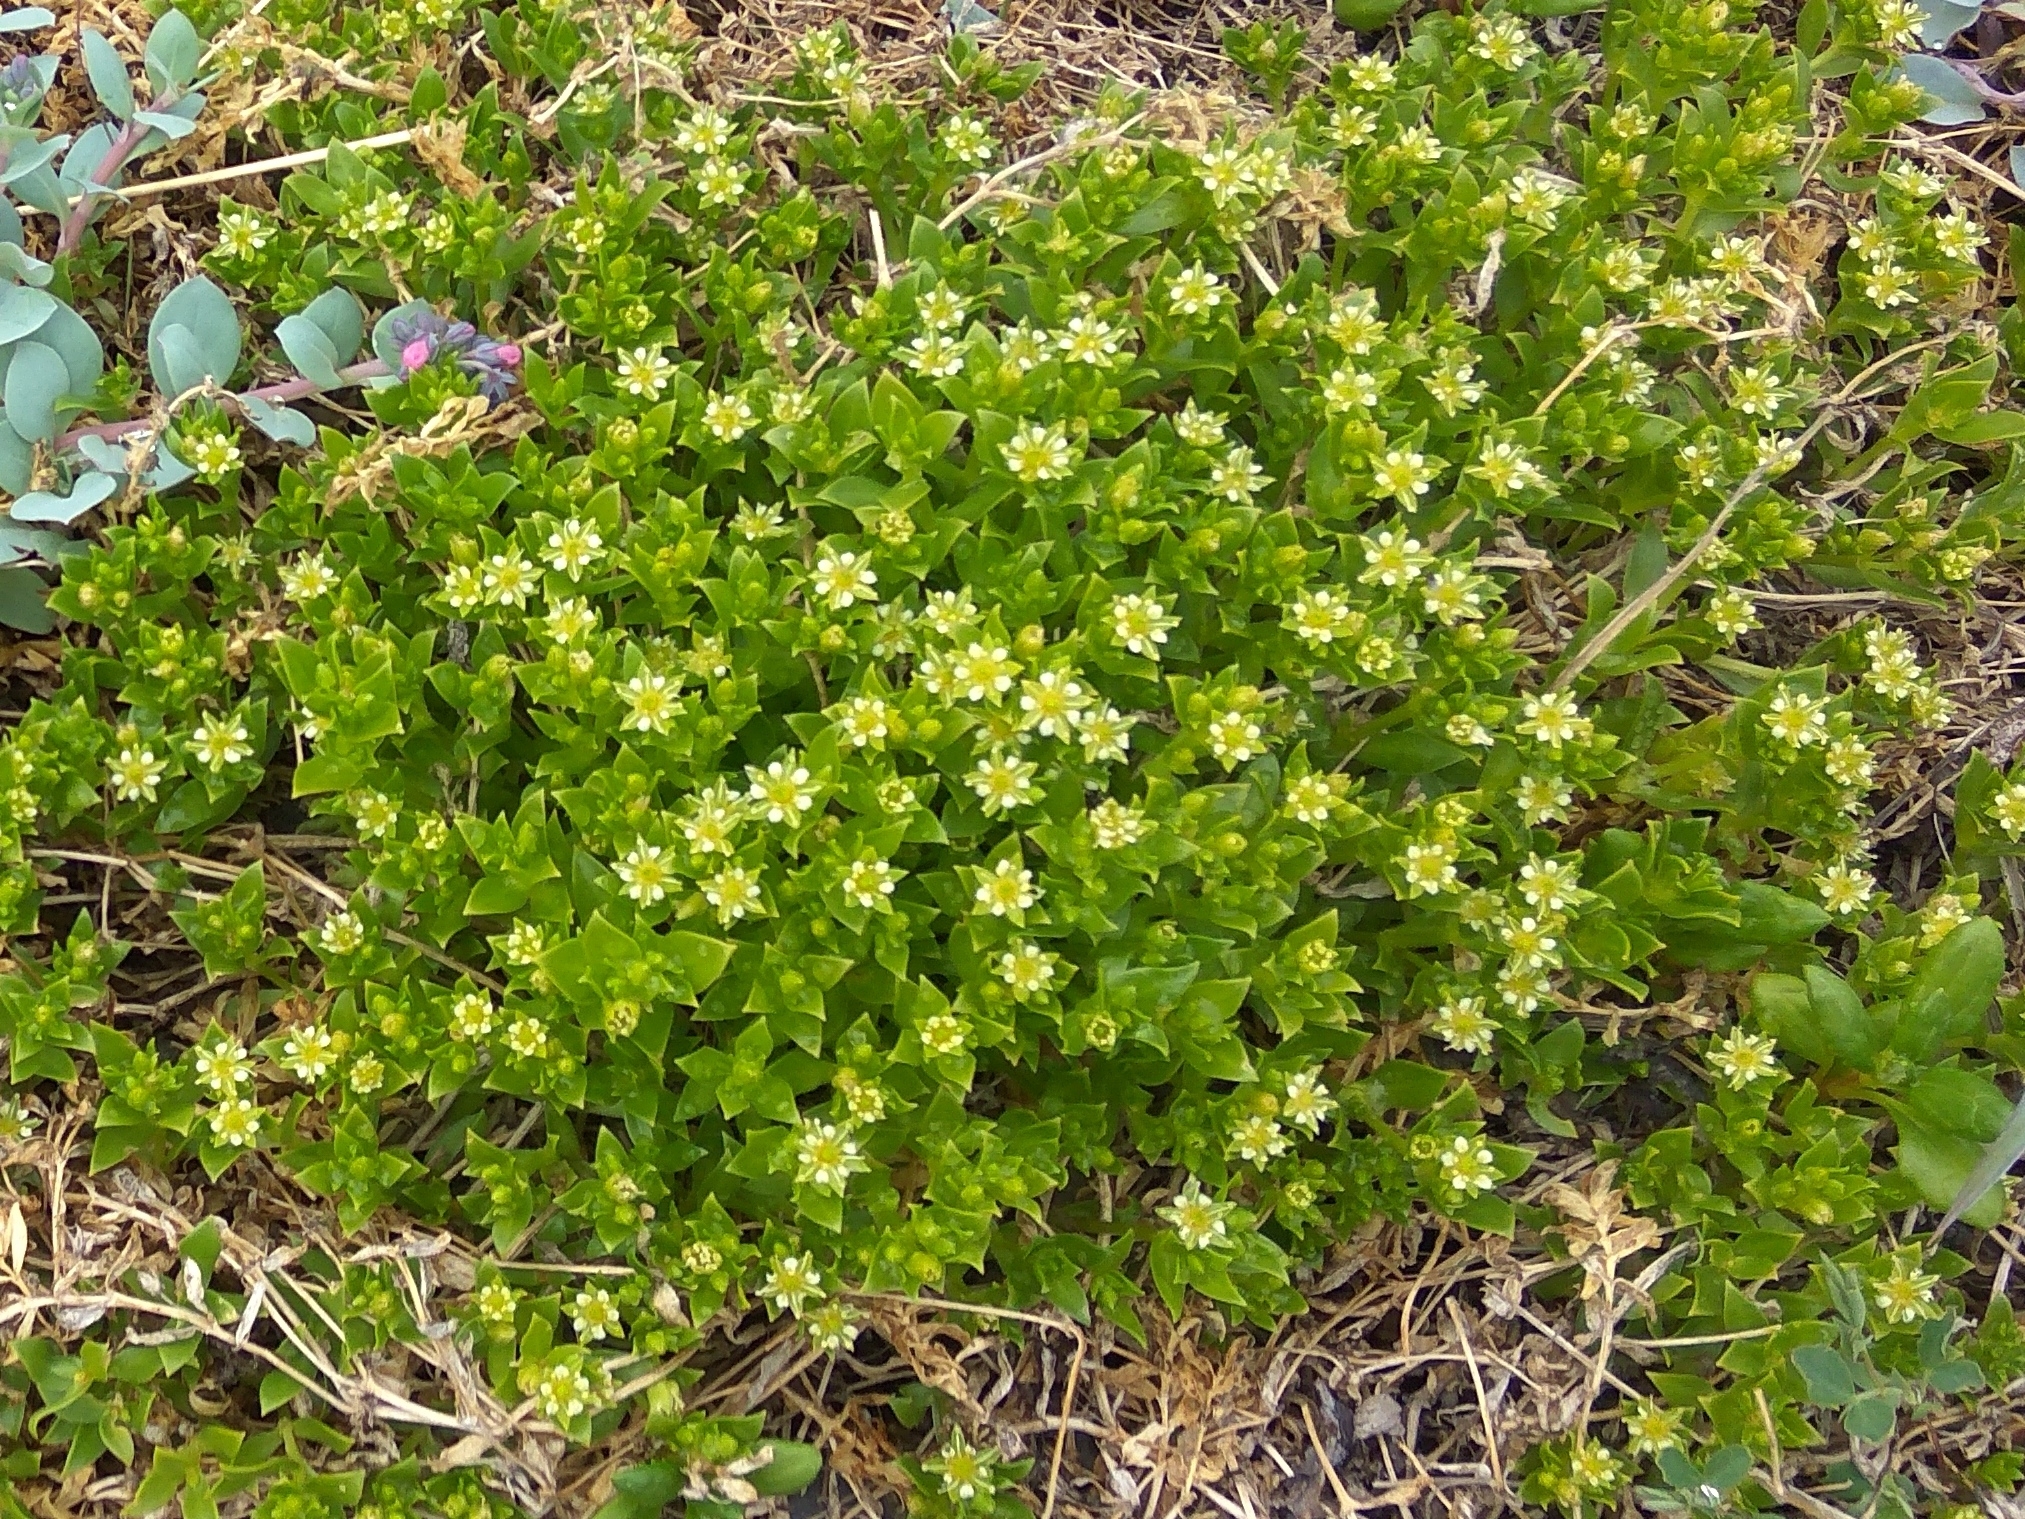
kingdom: Plantae
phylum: Tracheophyta
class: Magnoliopsida
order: Caryophyllales
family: Caryophyllaceae
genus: Honckenya
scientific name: Honckenya peploides
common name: Sea sandwort
